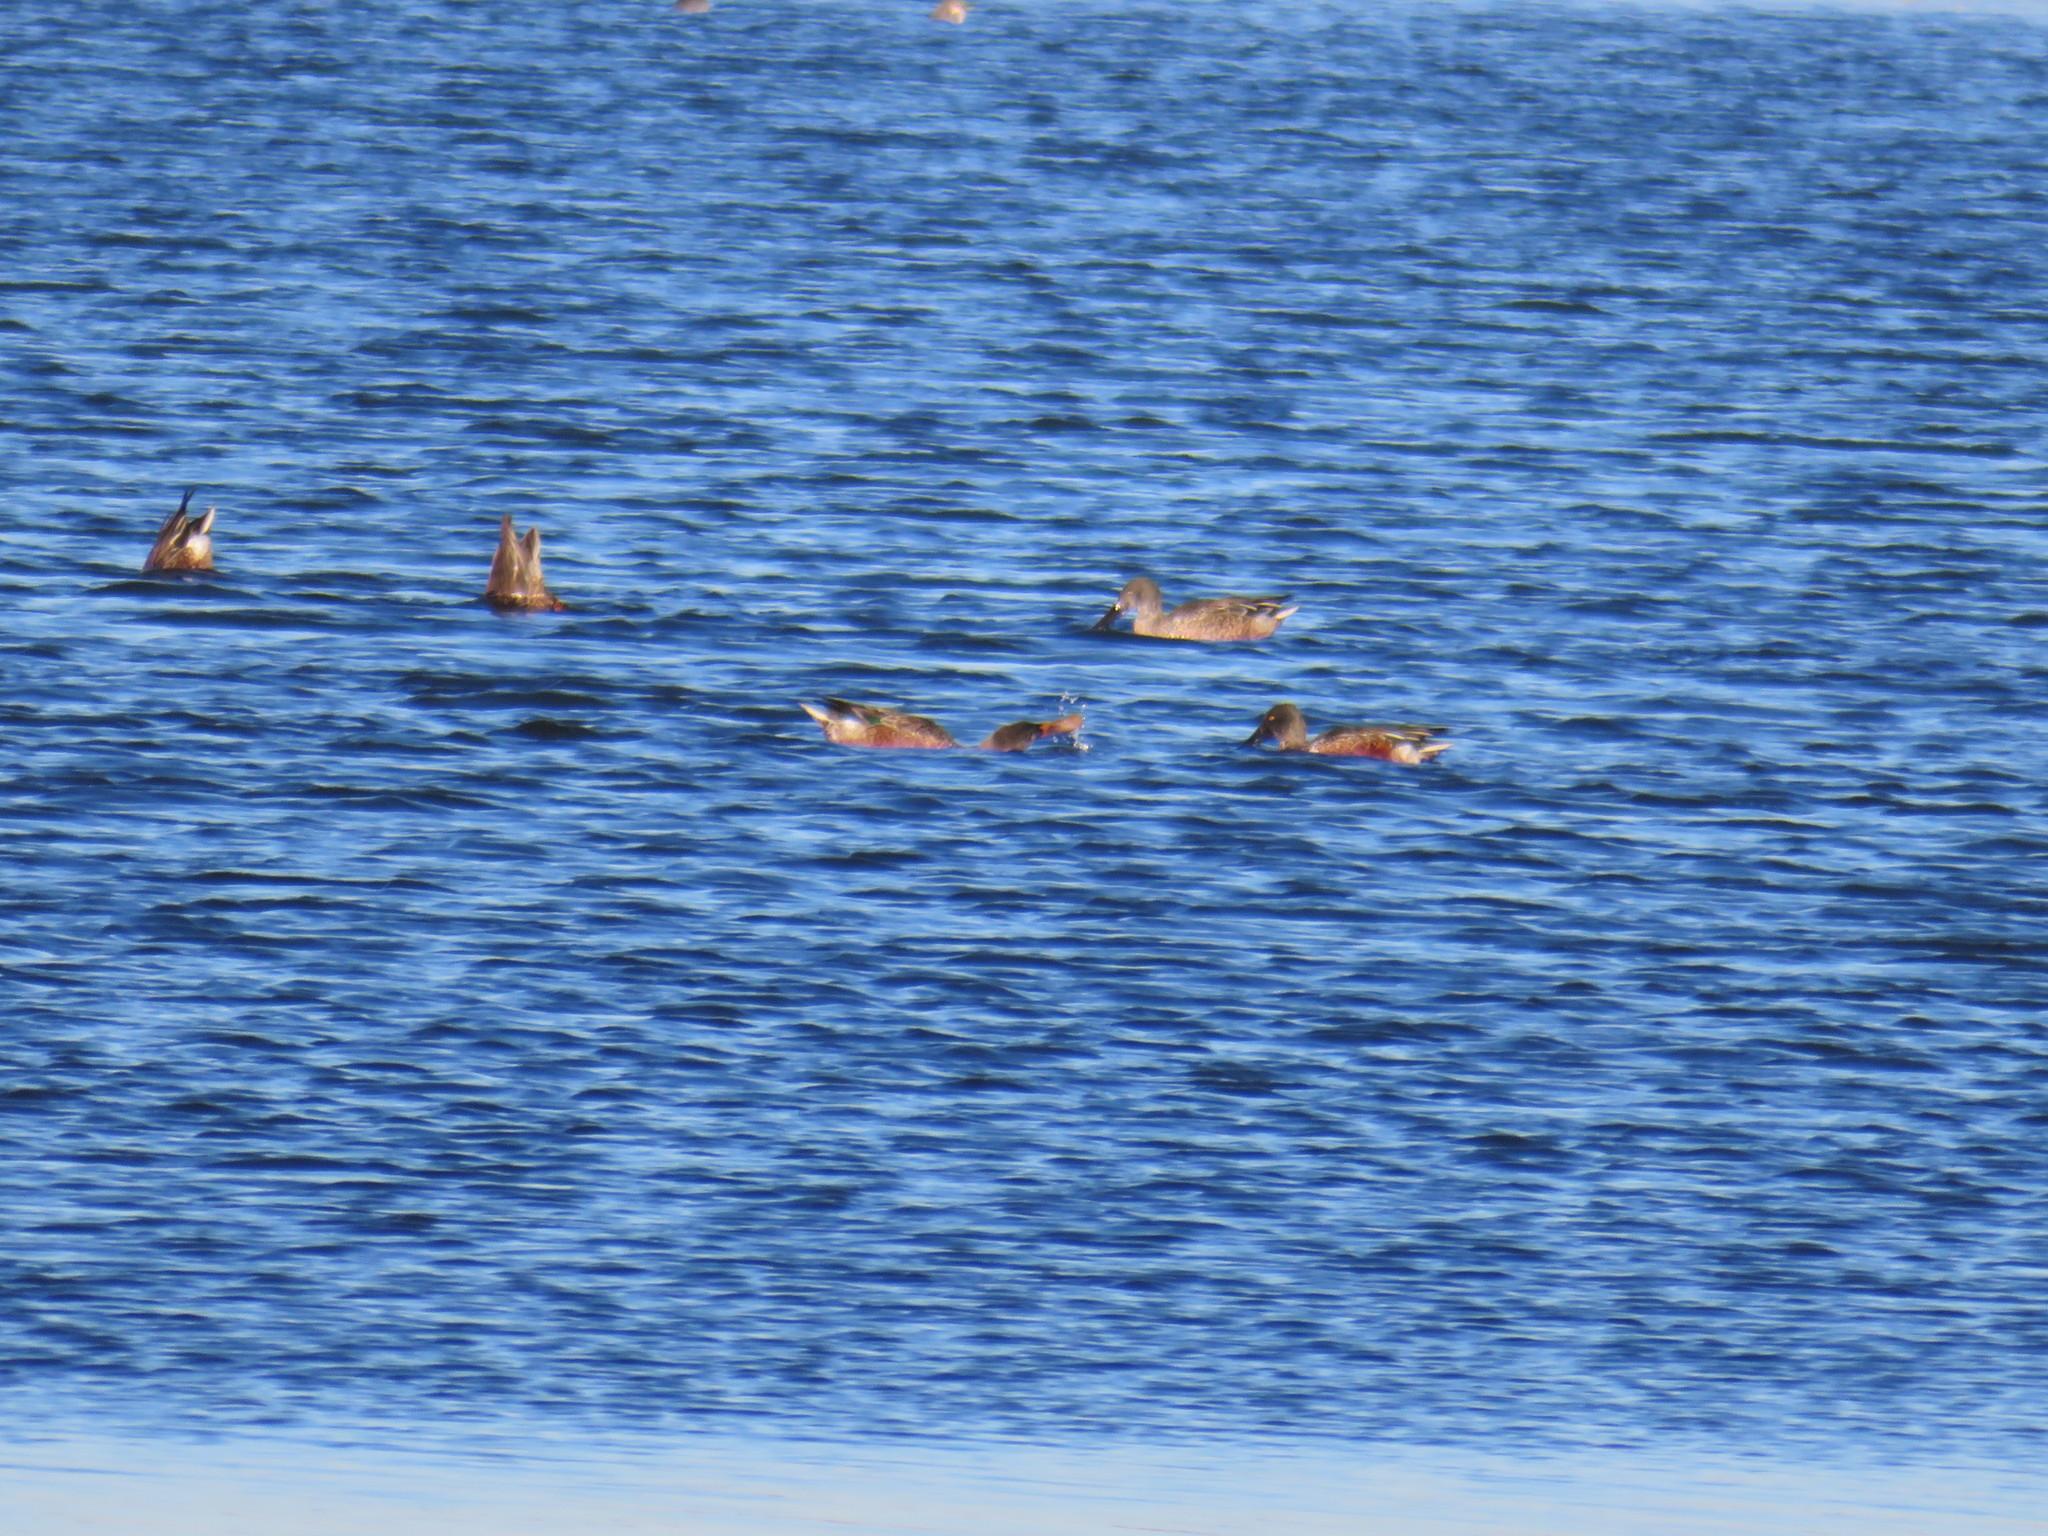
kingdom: Animalia
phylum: Chordata
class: Aves
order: Anseriformes
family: Anatidae
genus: Spatula
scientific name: Spatula clypeata
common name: Northern shoveler
